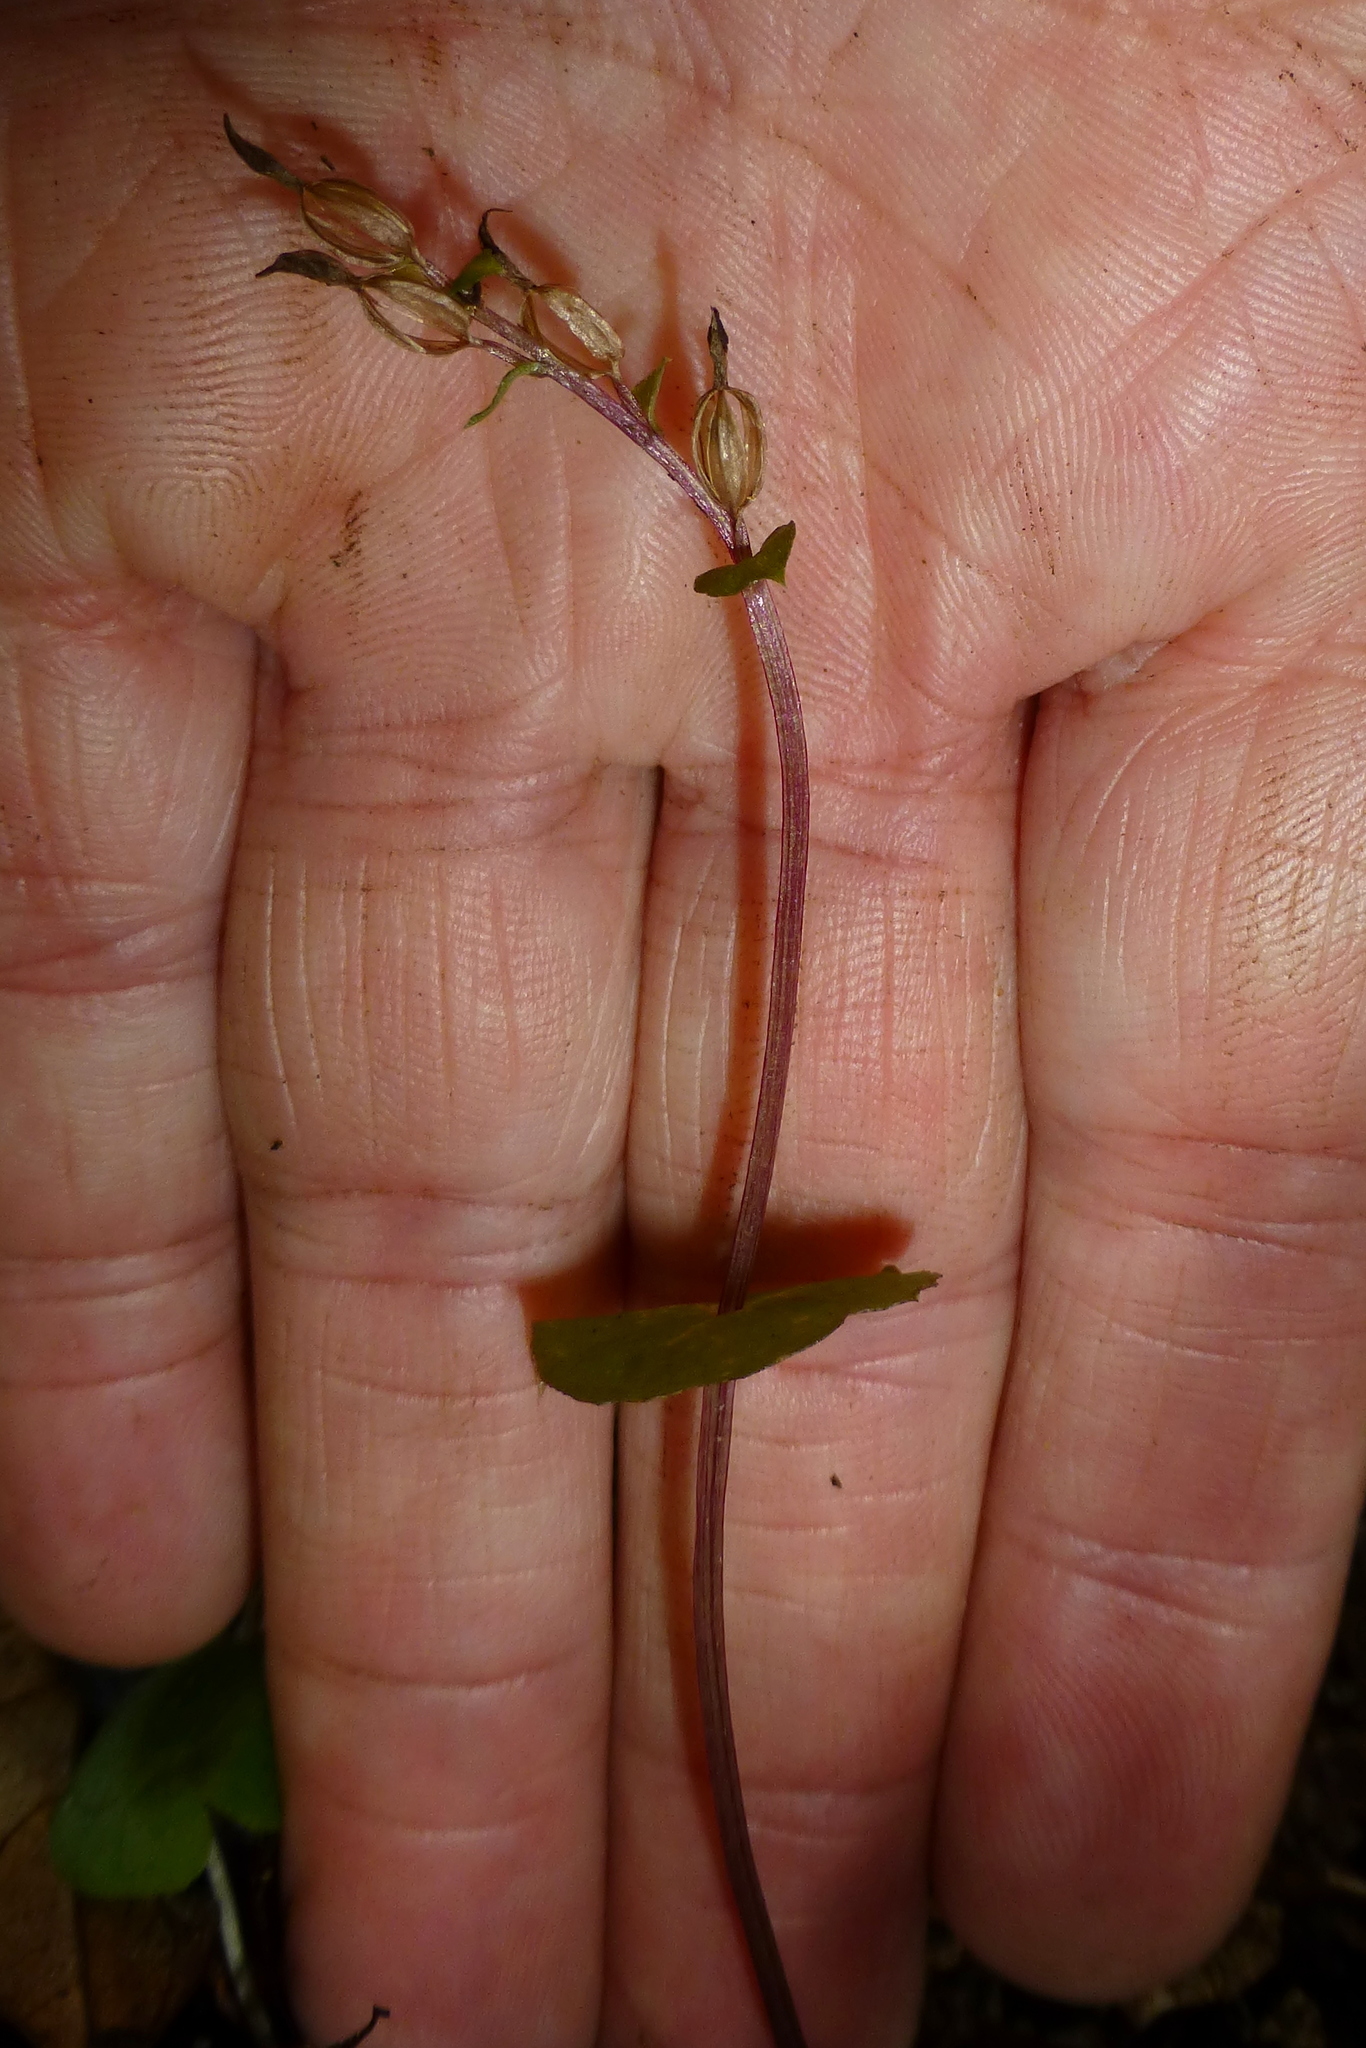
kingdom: Plantae
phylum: Tracheophyta
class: Liliopsida
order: Asparagales
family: Orchidaceae
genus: Acianthus
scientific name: Acianthus sinclairii
